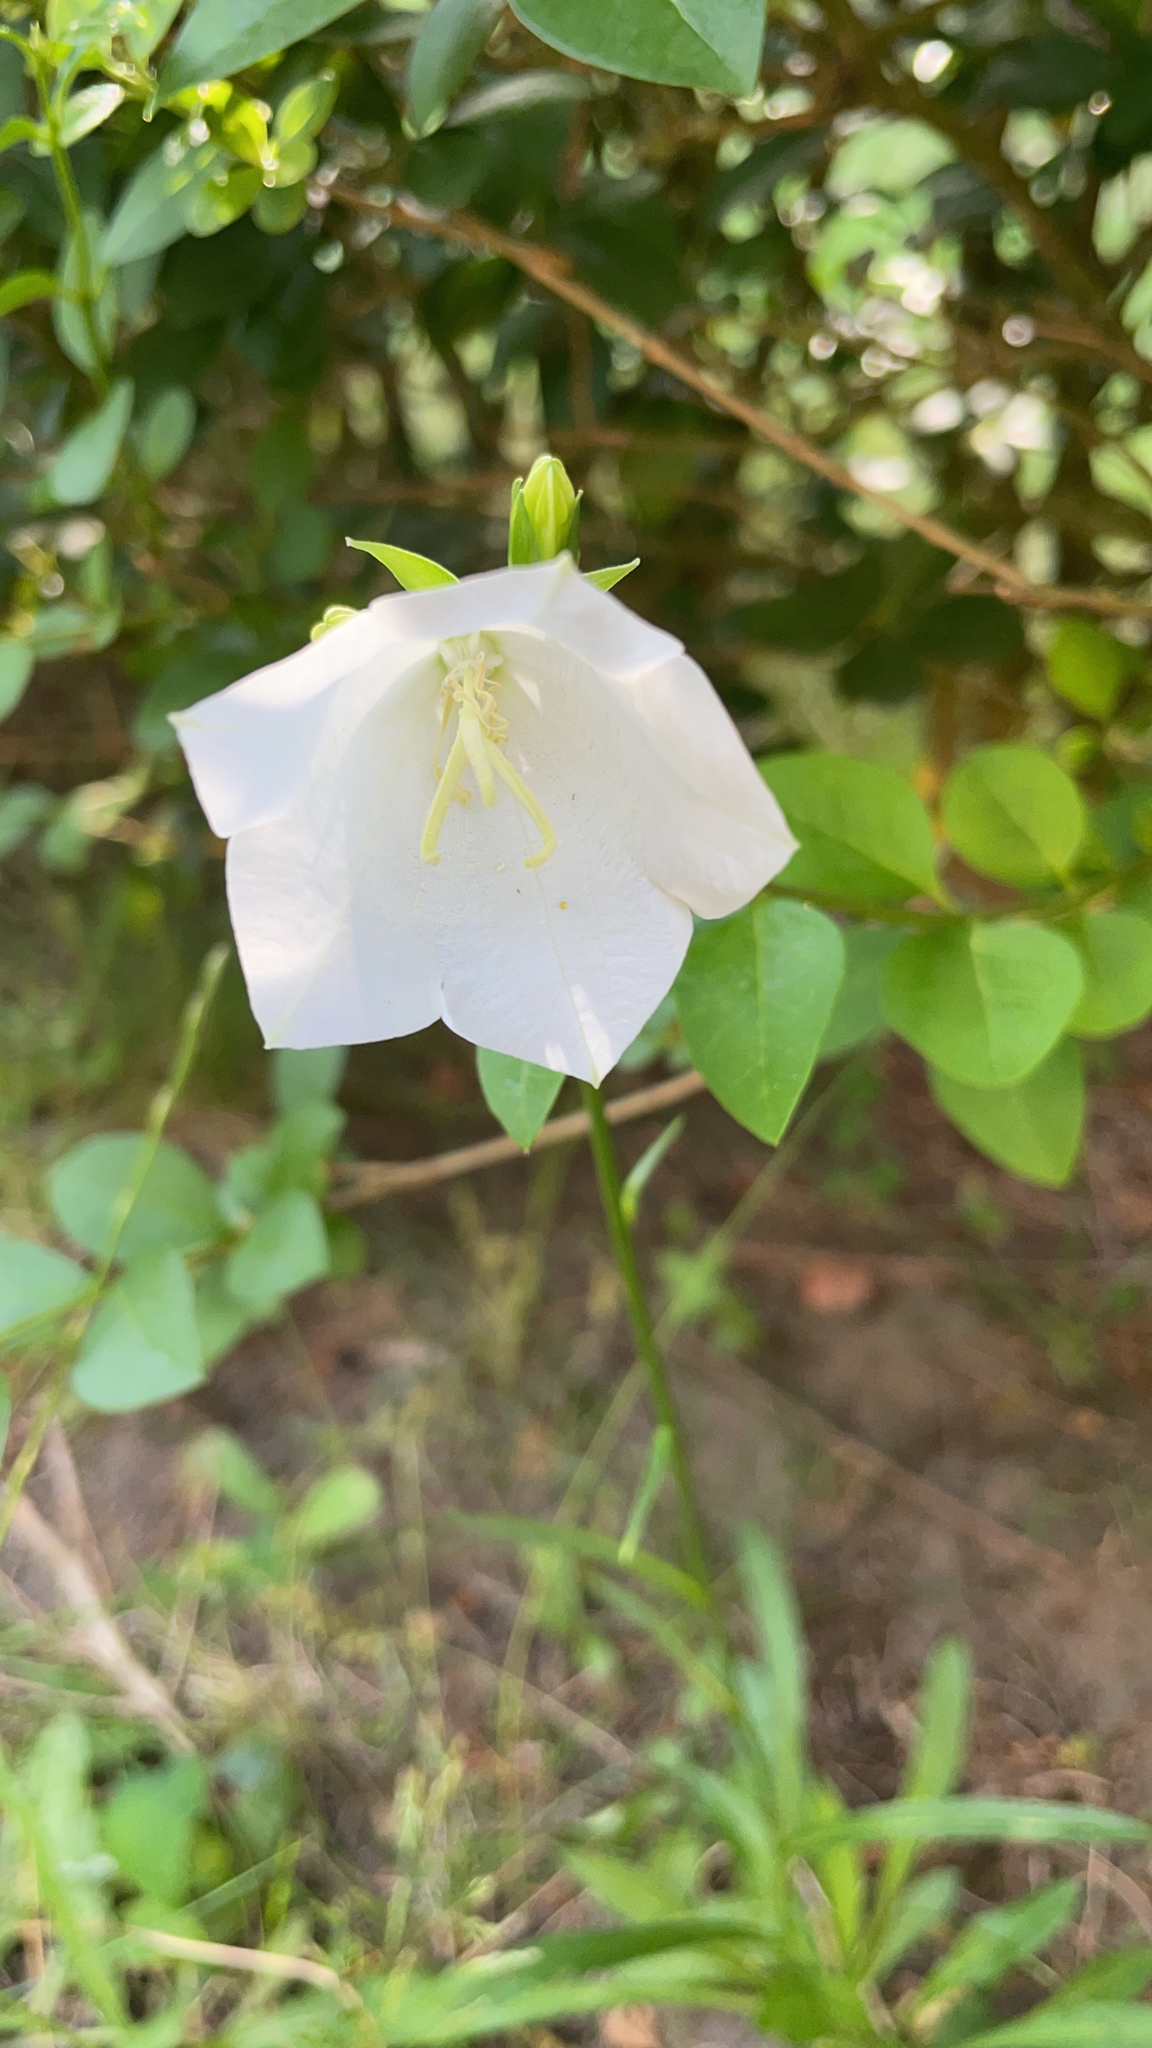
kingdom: Plantae
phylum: Tracheophyta
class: Magnoliopsida
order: Asterales
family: Campanulaceae
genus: Campanula
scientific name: Campanula persicifolia
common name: Peach-leaved bellflower
